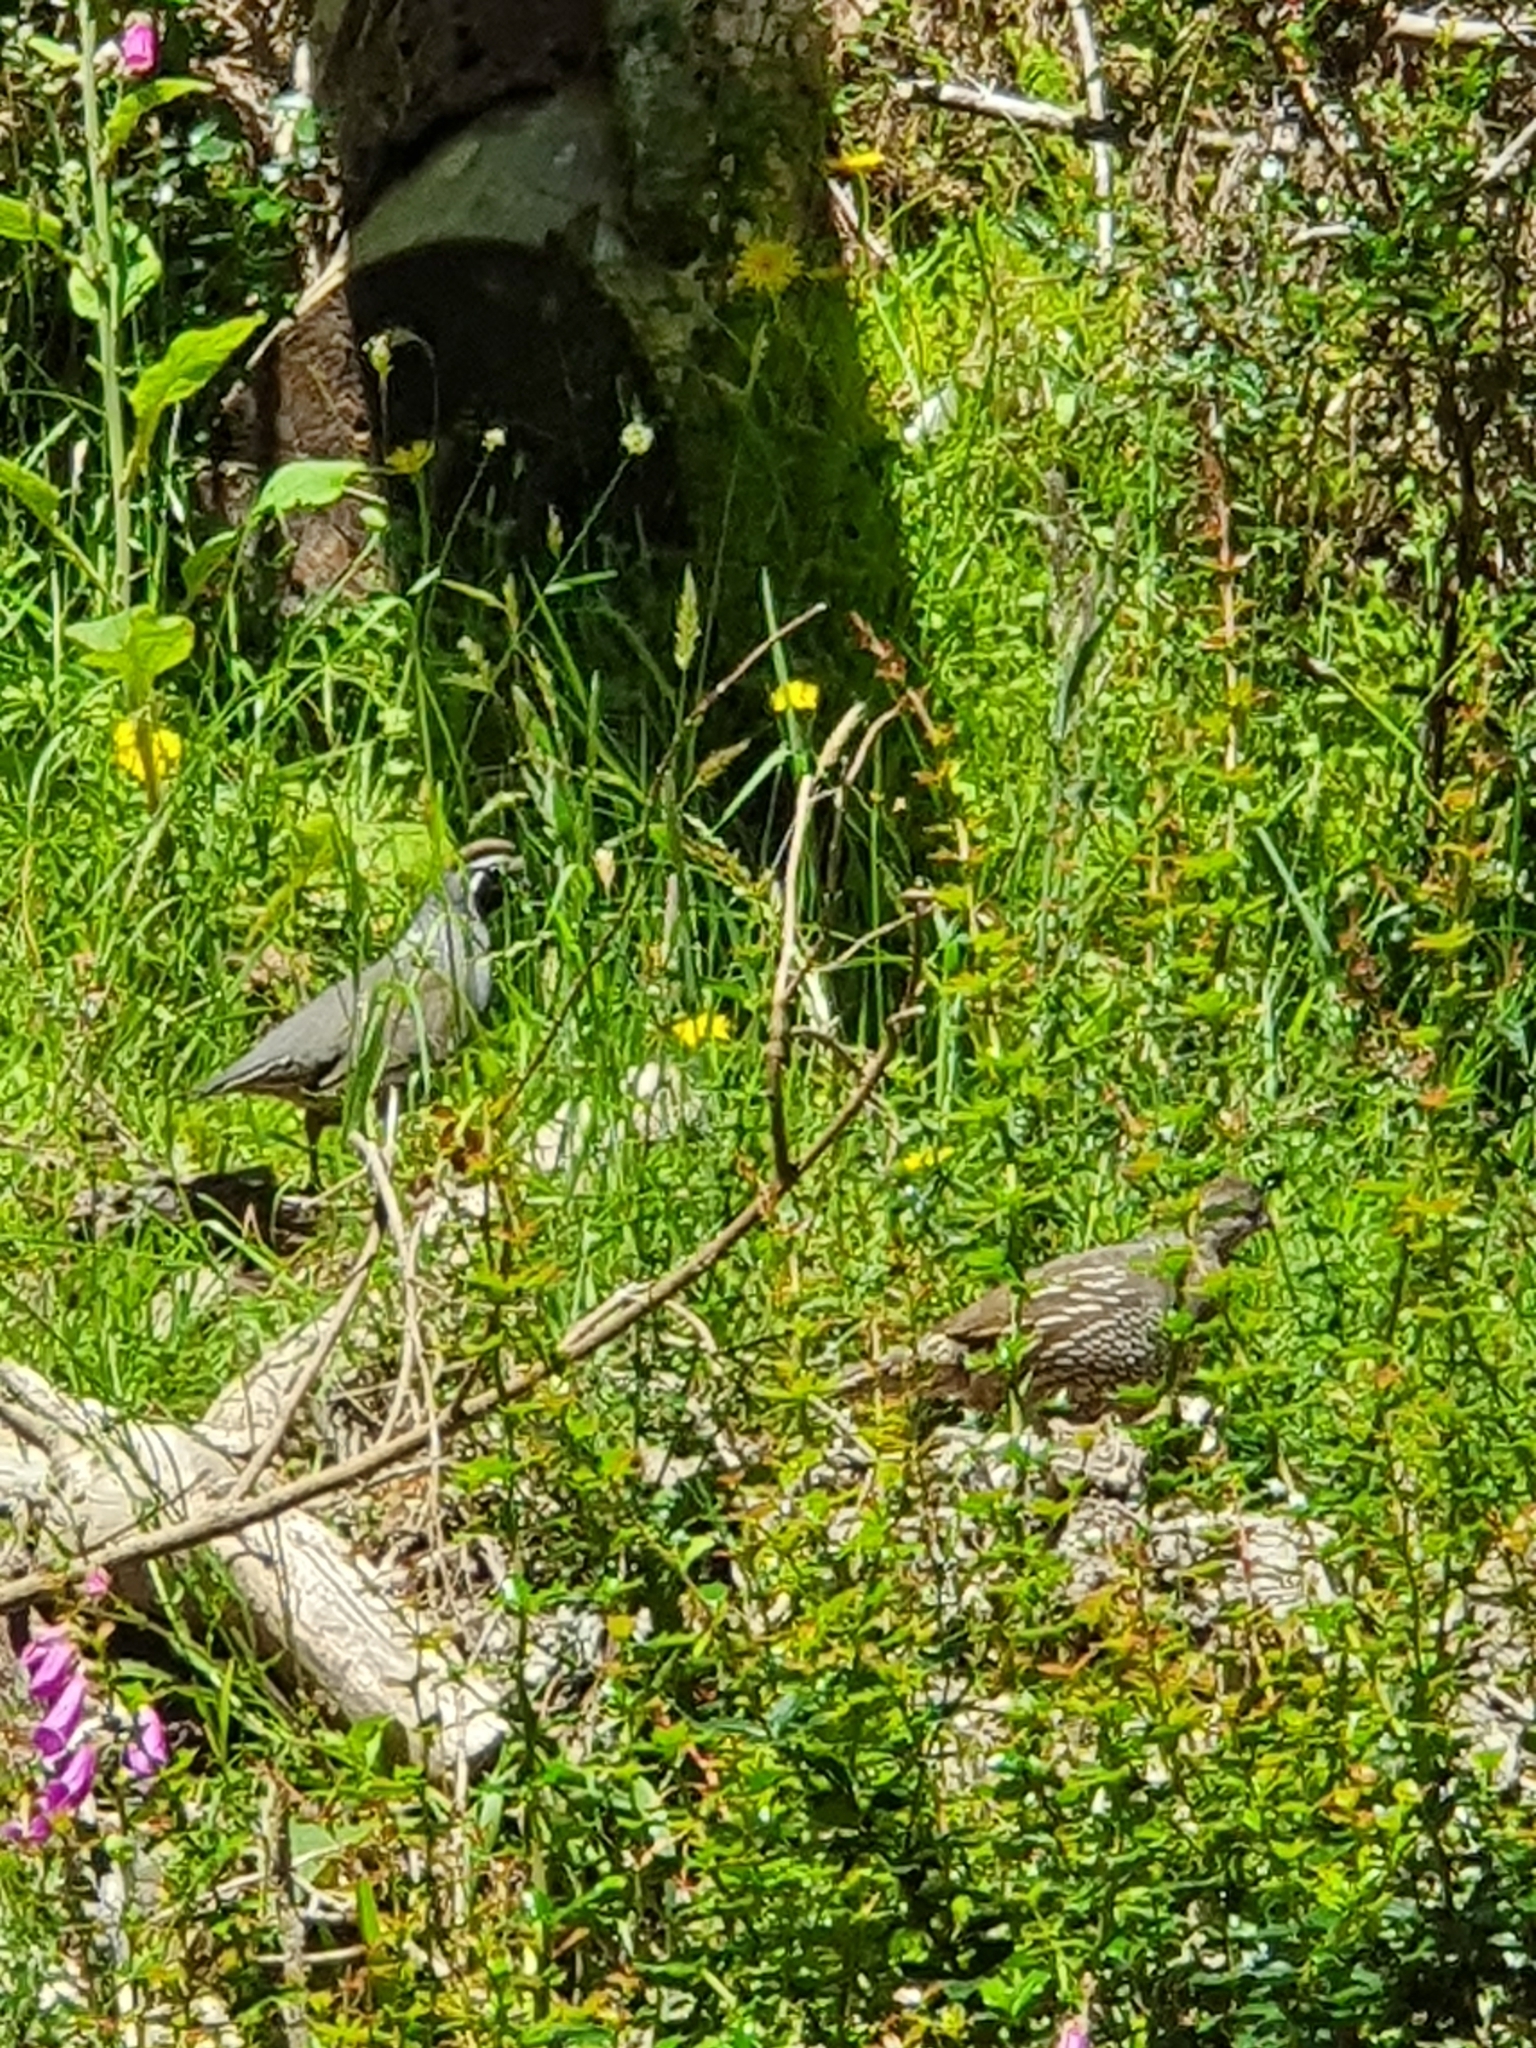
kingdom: Animalia
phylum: Chordata
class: Aves
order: Galliformes
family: Odontophoridae
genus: Callipepla
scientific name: Callipepla californica
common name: California quail
